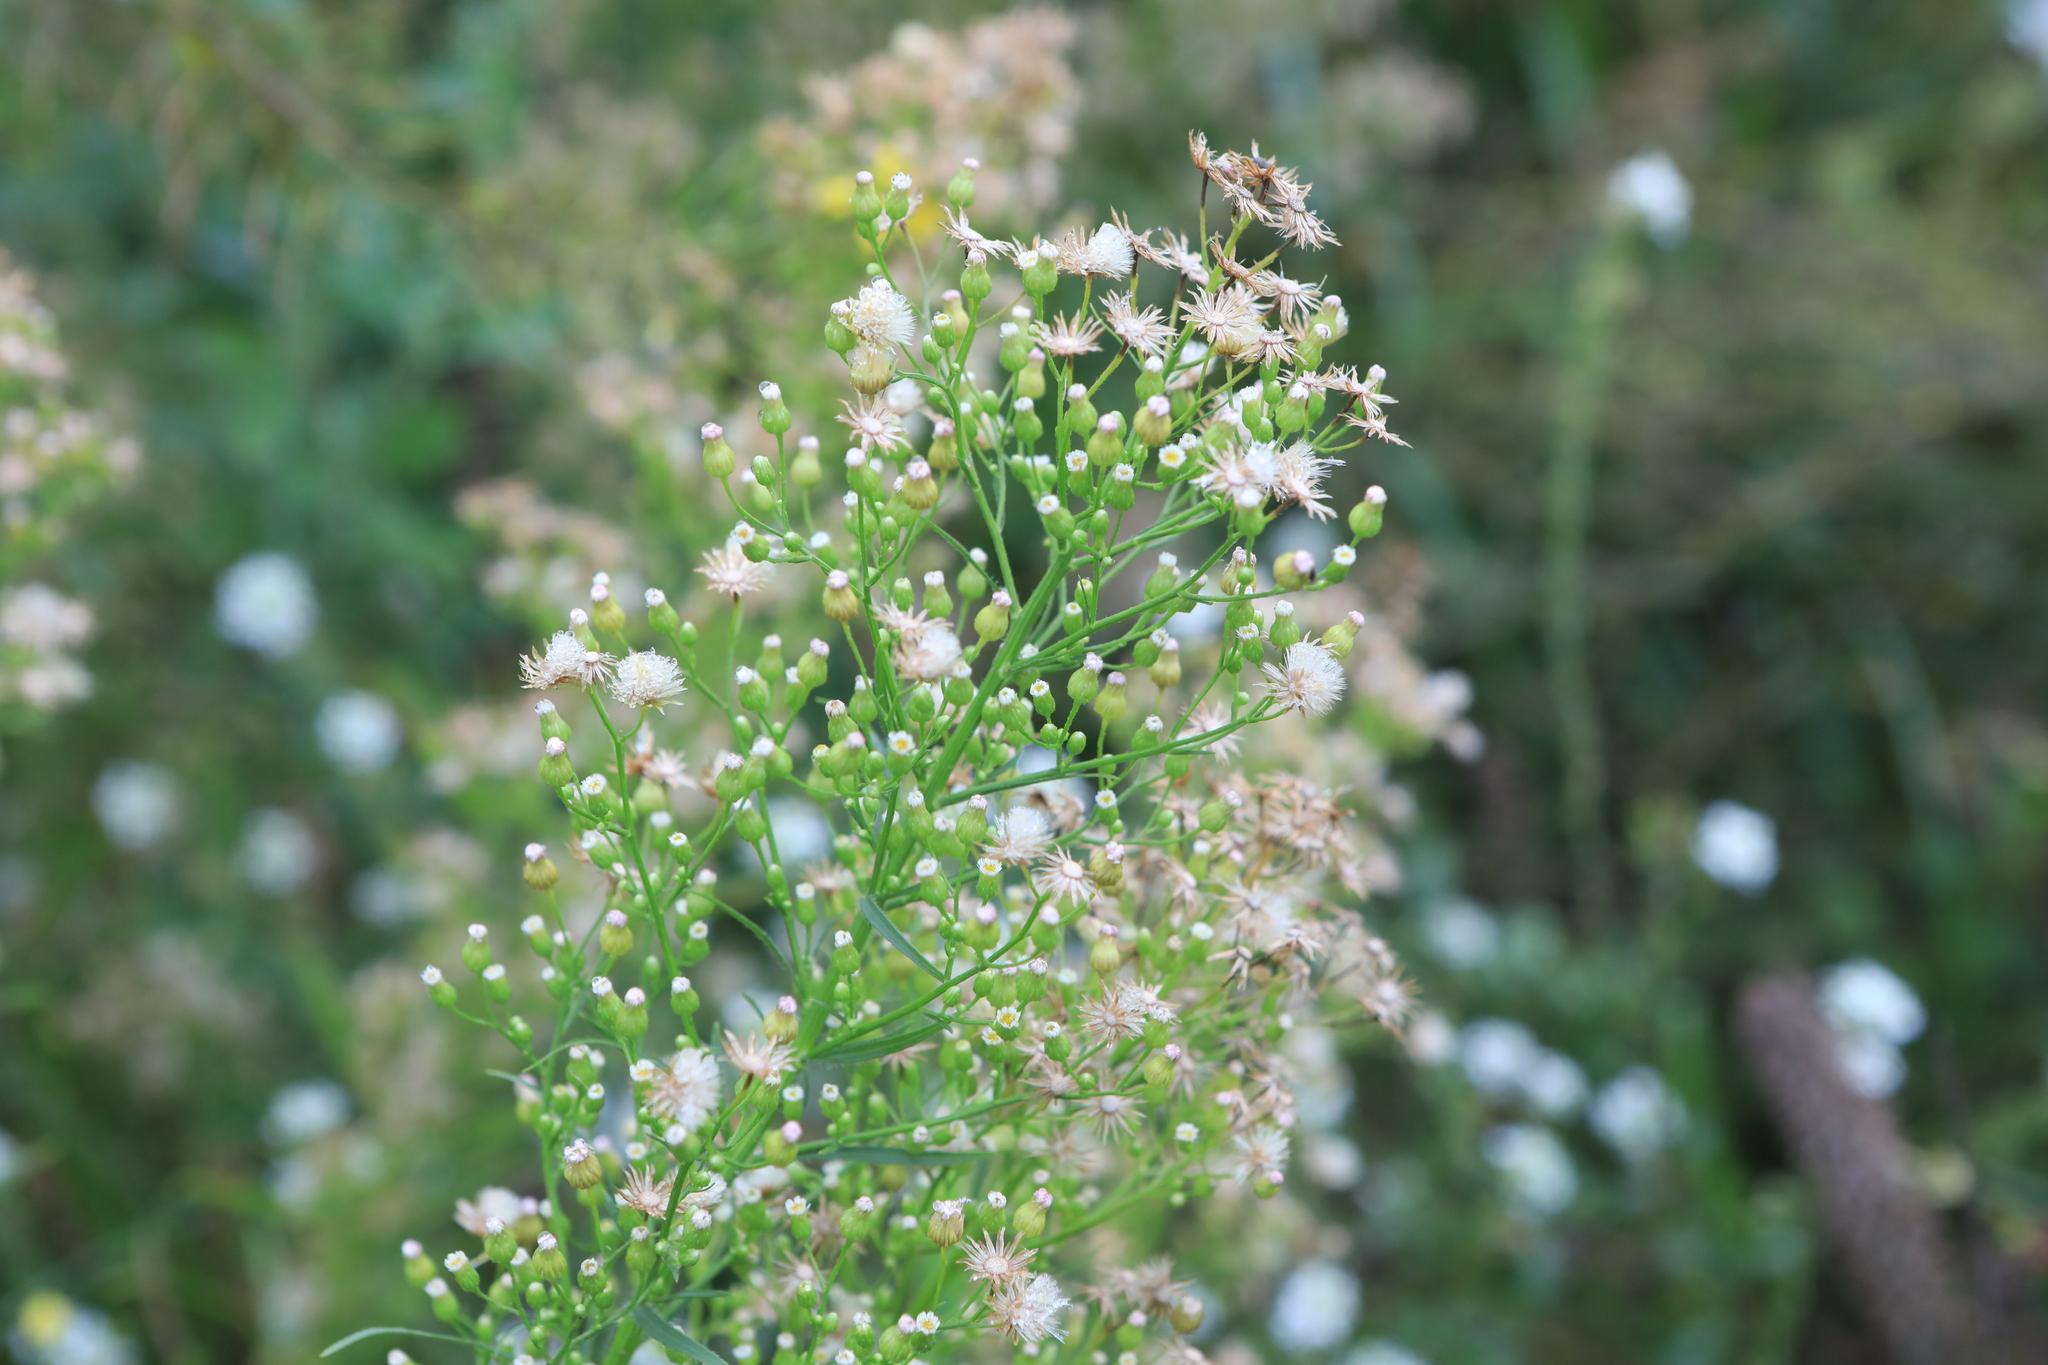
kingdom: Plantae
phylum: Tracheophyta
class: Magnoliopsida
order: Asterales
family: Asteraceae
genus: Erigeron
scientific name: Erigeron canadensis
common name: Canadian fleabane
